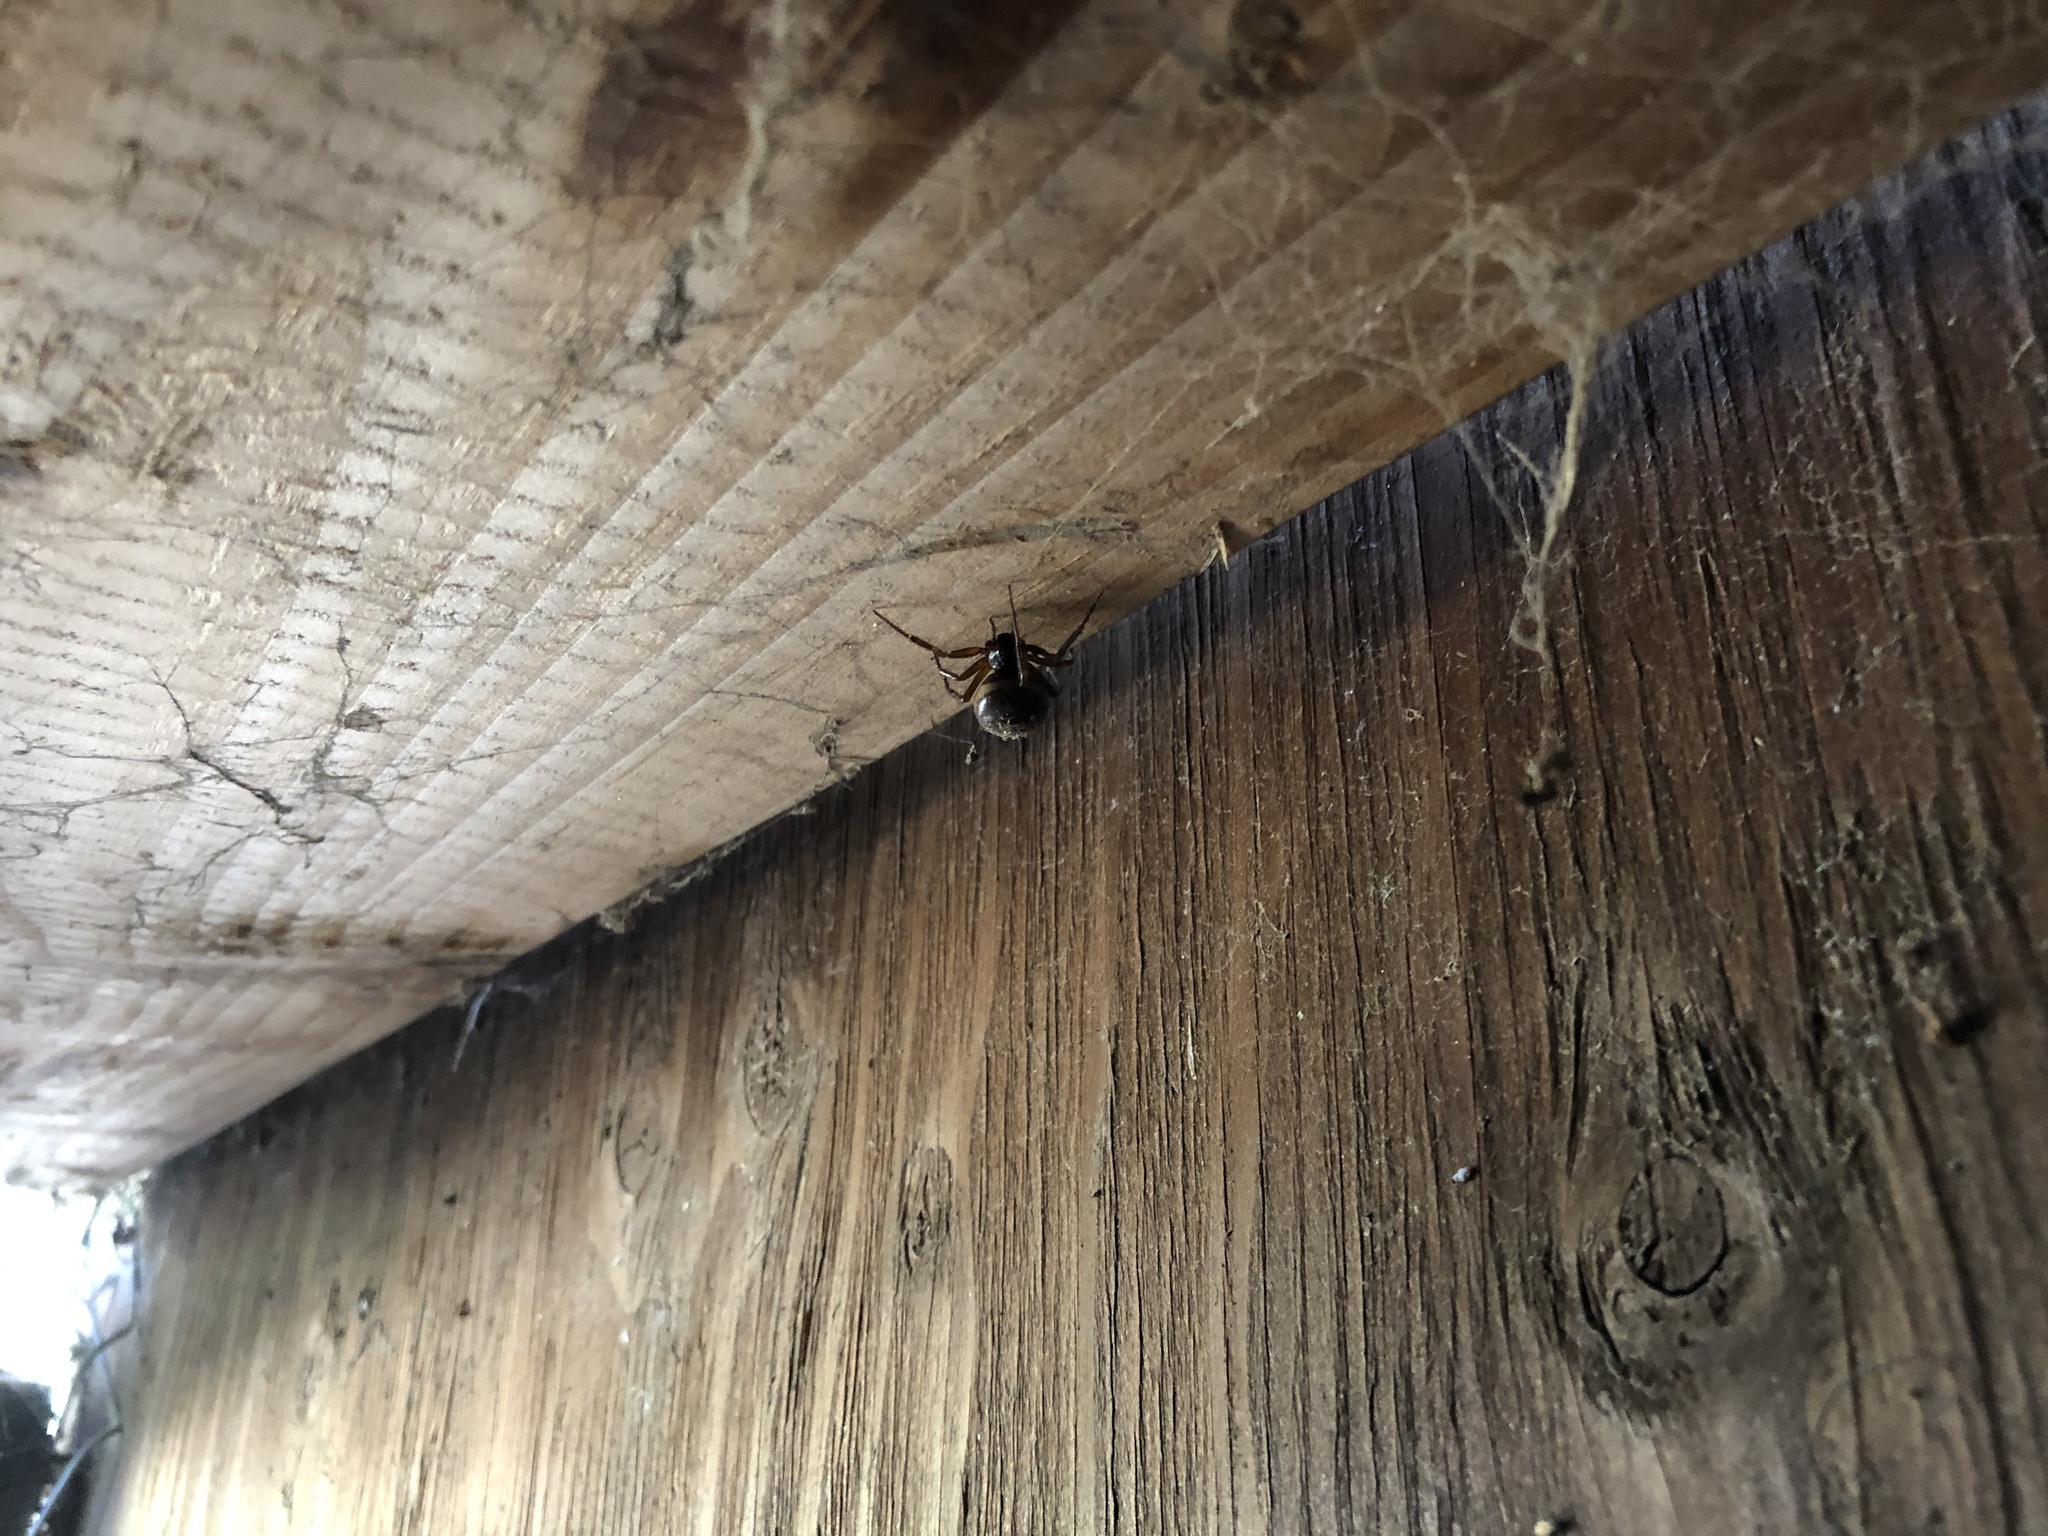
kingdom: Animalia
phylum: Arthropoda
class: Arachnida
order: Araneae
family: Theridiidae
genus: Steatoda
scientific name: Steatoda nobilis
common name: Cobweb weaver
